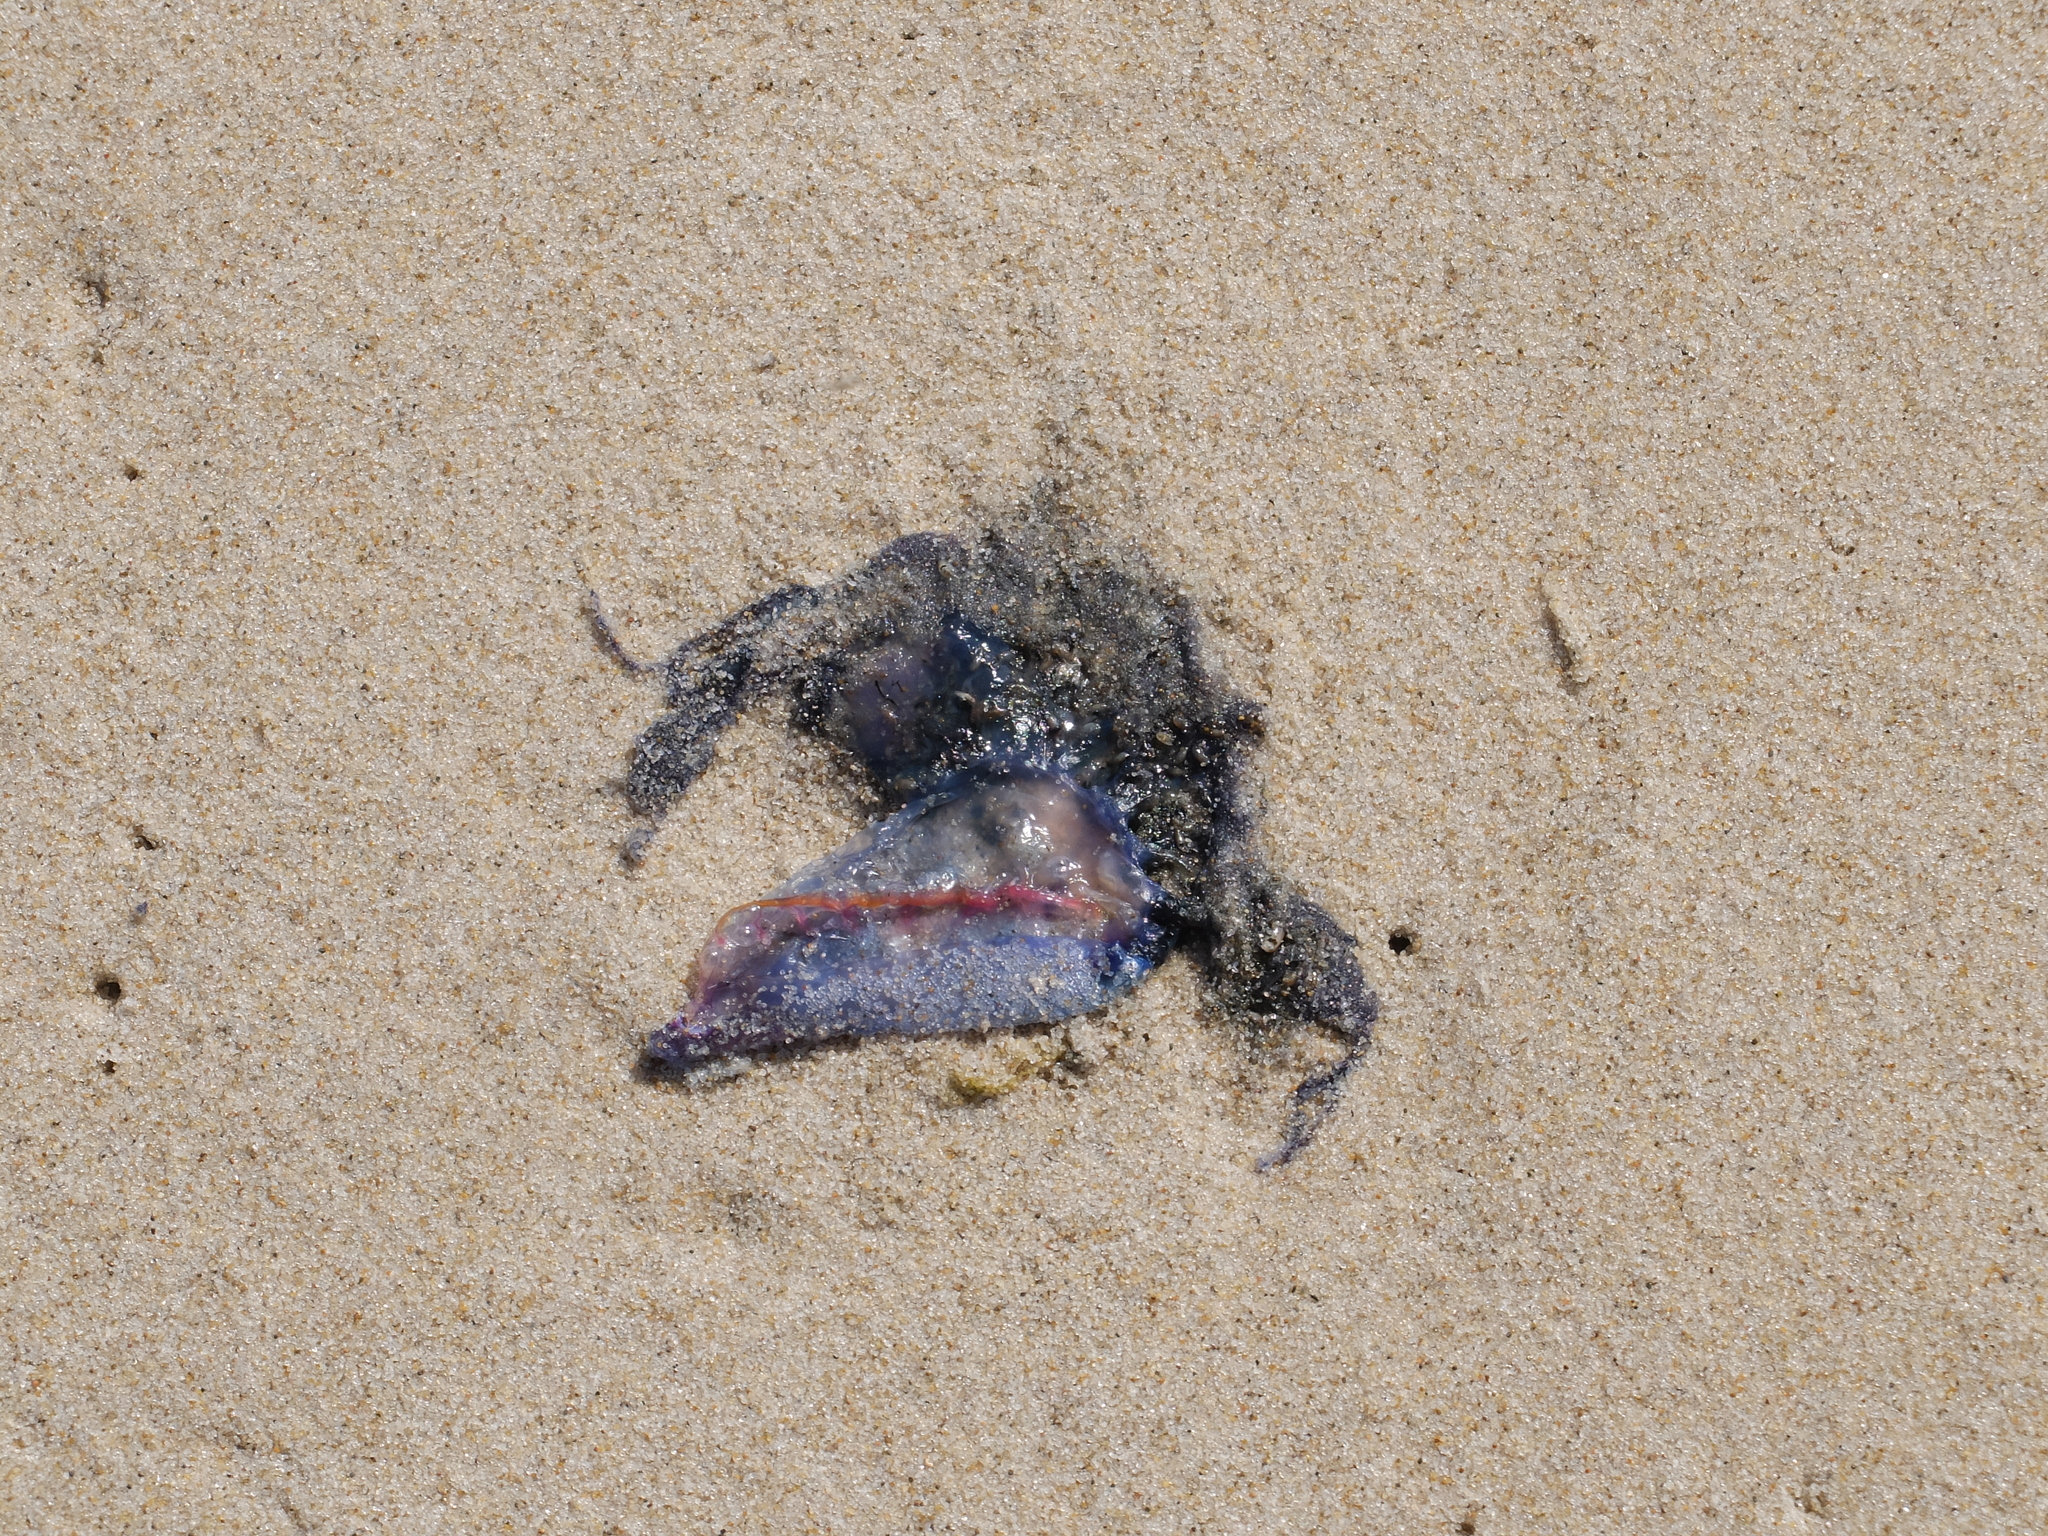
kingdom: Animalia
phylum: Cnidaria
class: Hydrozoa
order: Siphonophorae
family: Physaliidae
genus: Physalia
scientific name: Physalia physalis
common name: Portuguese man-of-war
